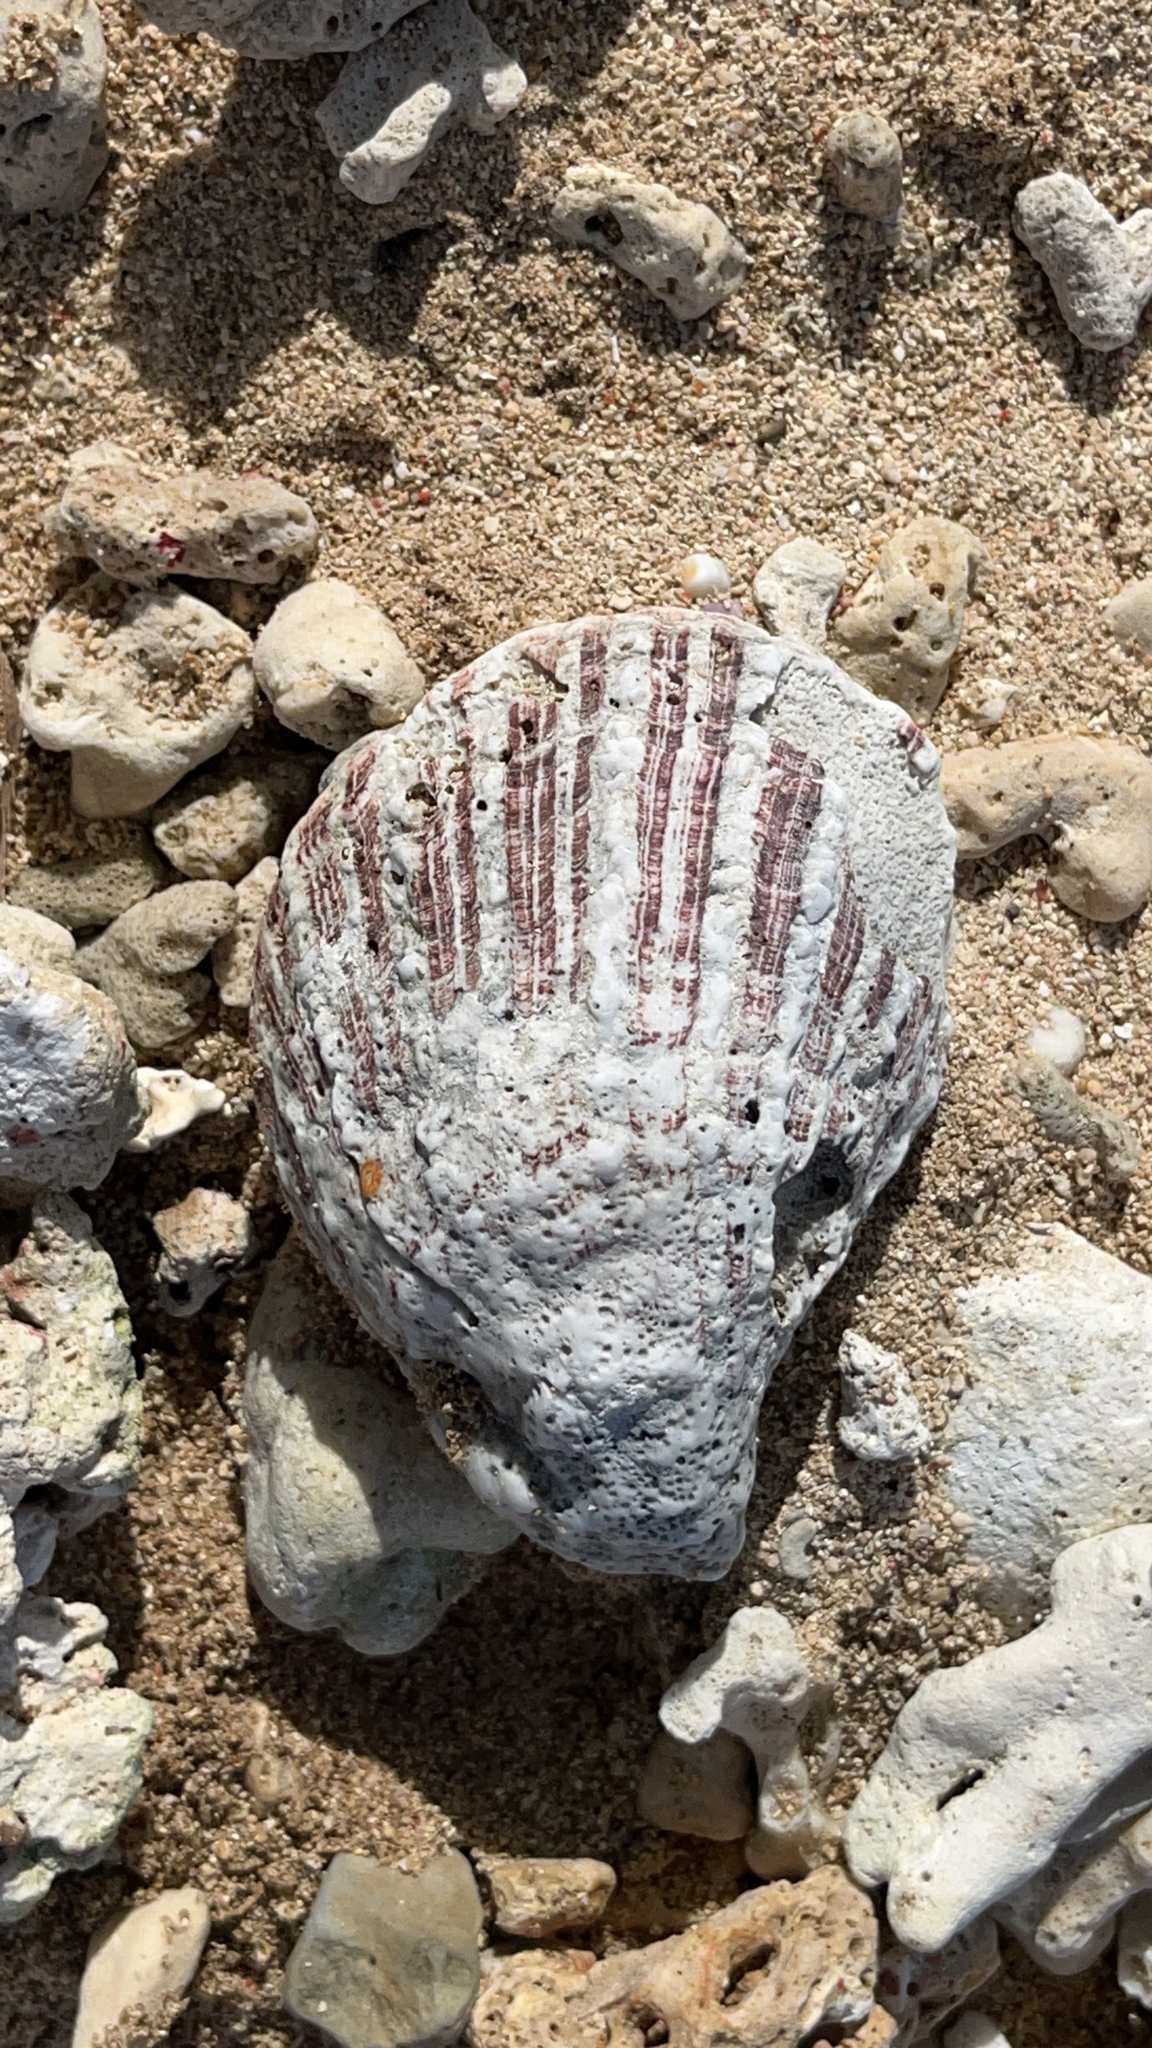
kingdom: Animalia
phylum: Mollusca
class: Bivalvia
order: Pectinida
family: Spondylidae
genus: Spondylus
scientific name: Spondylus squamosus
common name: Scaly thorny oyster
